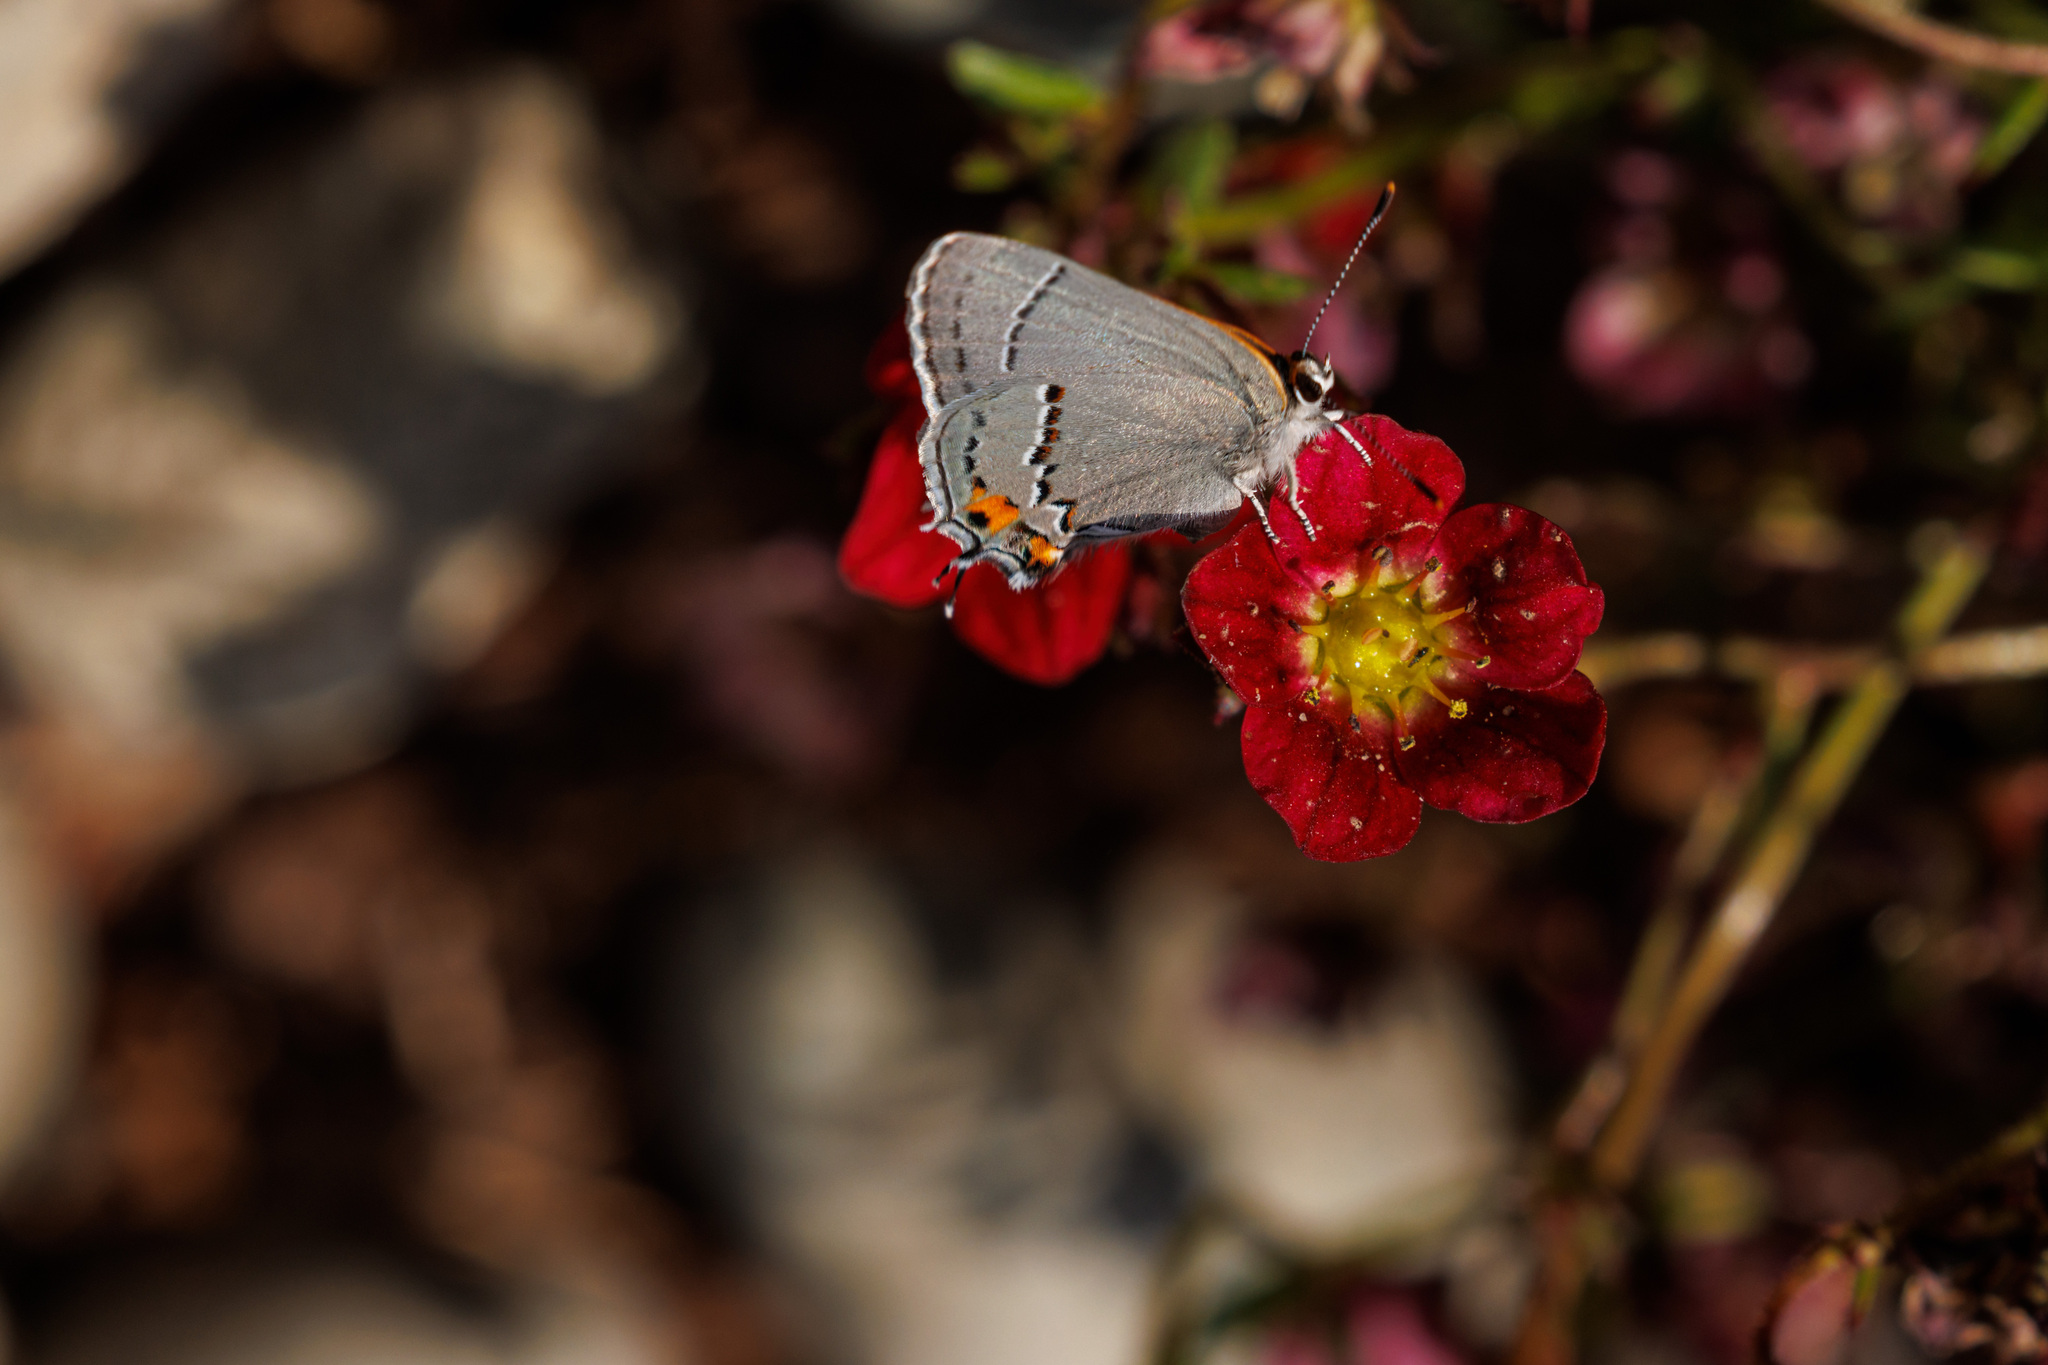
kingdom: Animalia
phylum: Arthropoda
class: Insecta
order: Lepidoptera
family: Lycaenidae
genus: Strymon
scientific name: Strymon melinus
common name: Gray hairstreak
